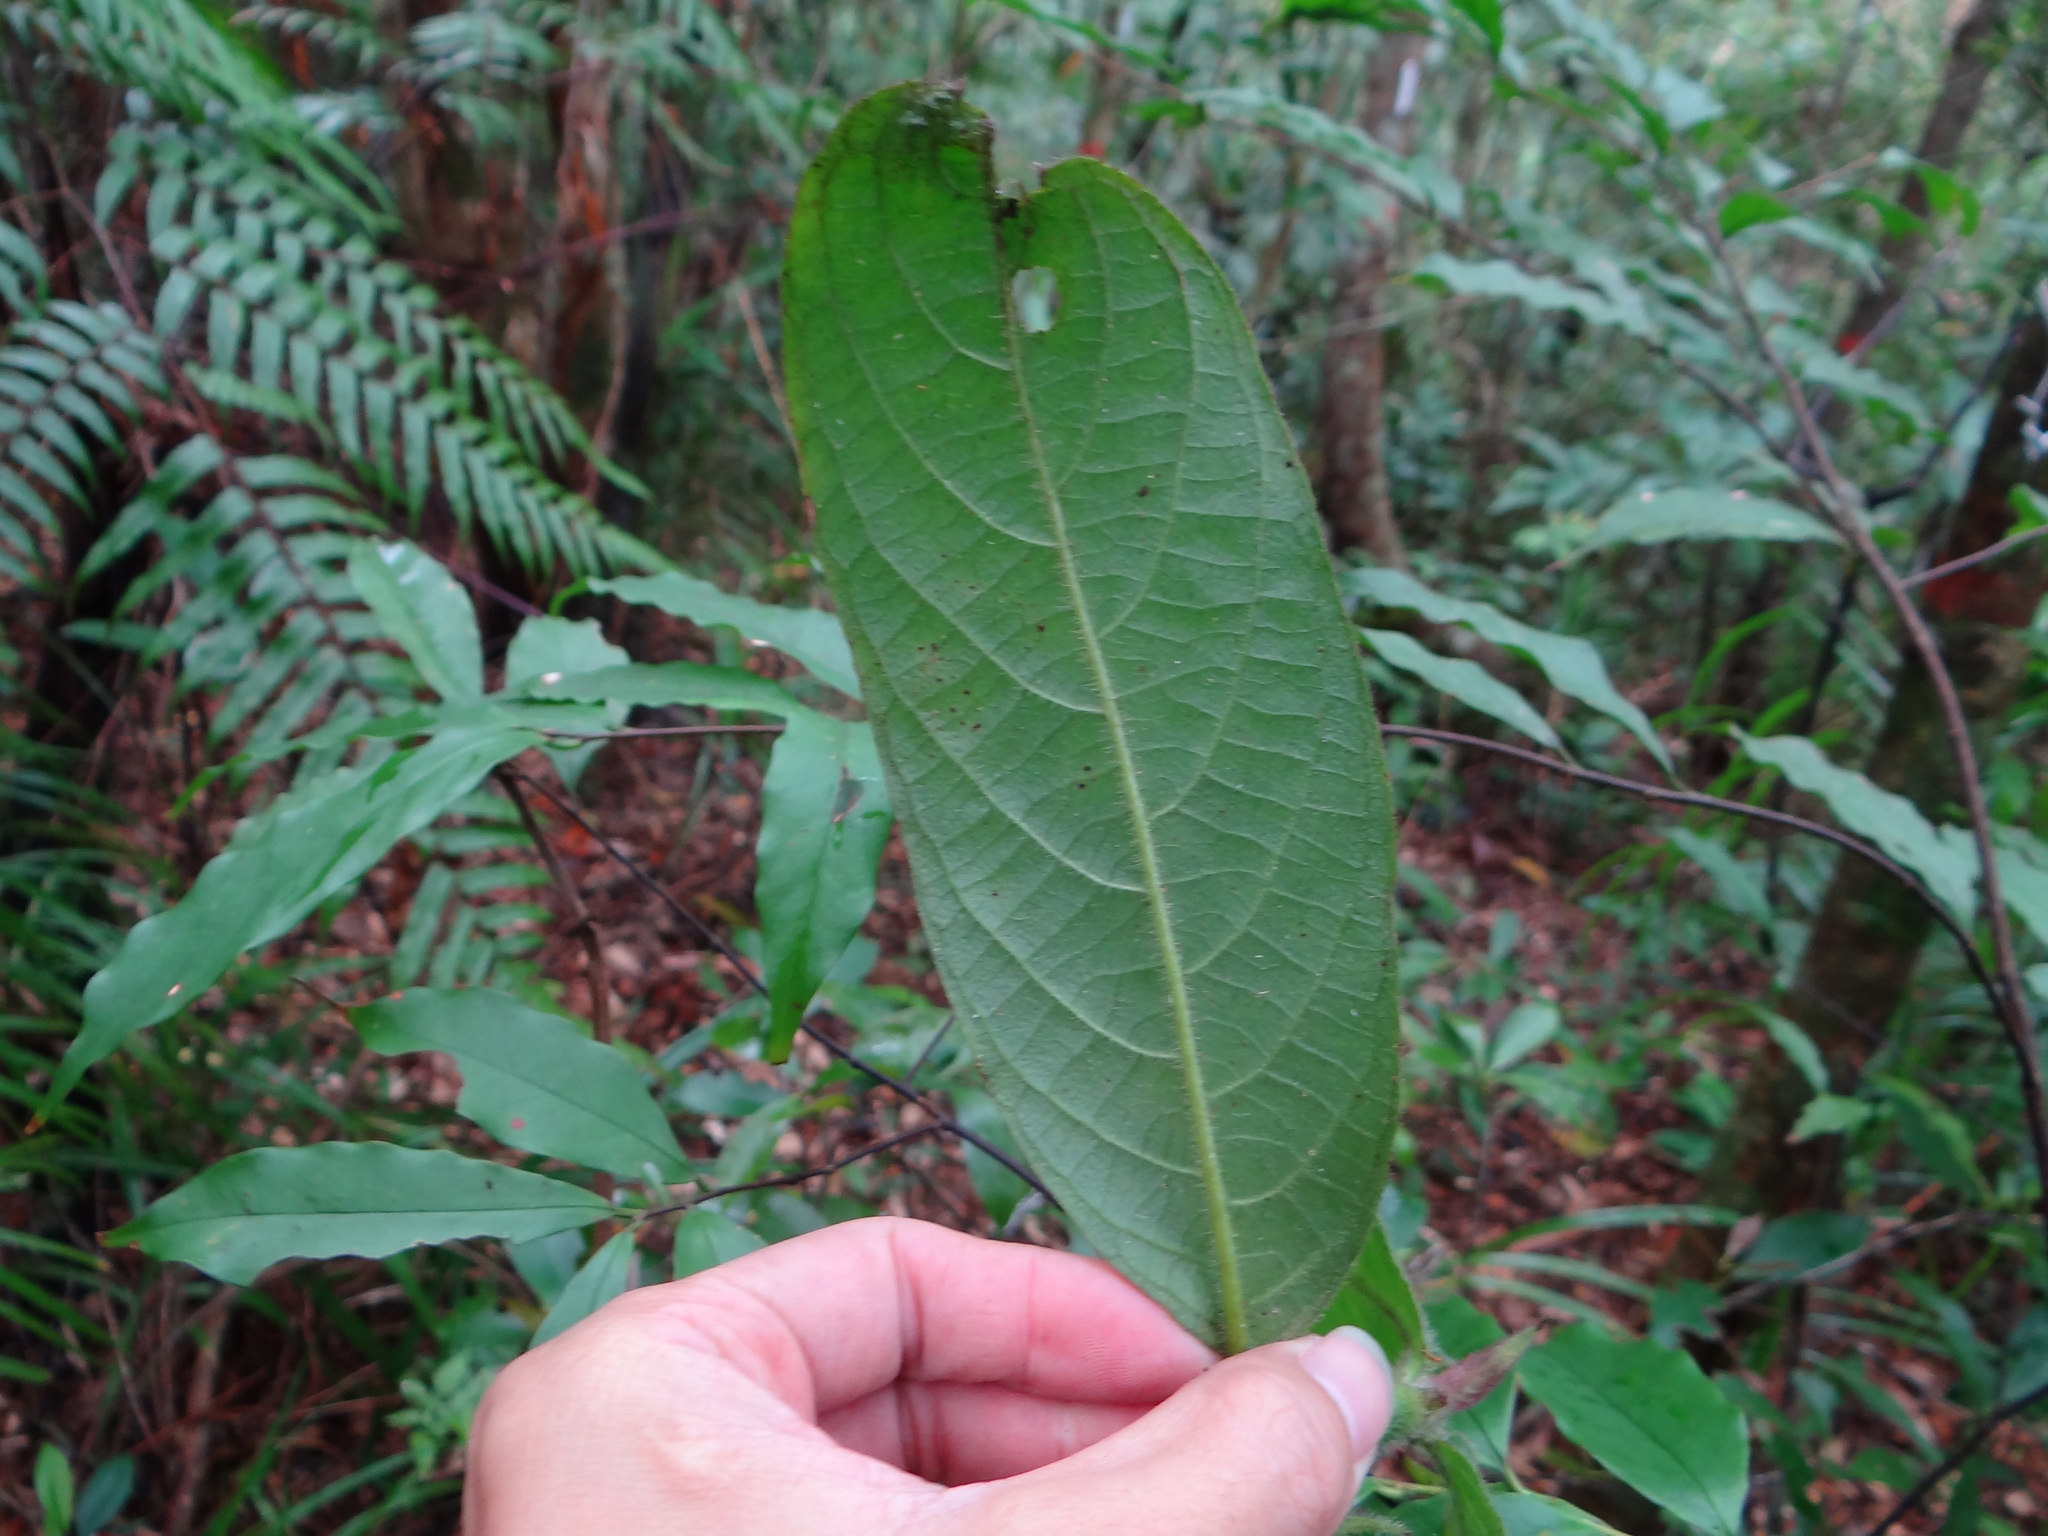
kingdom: Plantae
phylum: Tracheophyta
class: Magnoliopsida
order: Gentianales
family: Rubiaceae
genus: Lasianthus
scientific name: Lasianthus cyanocarpus
